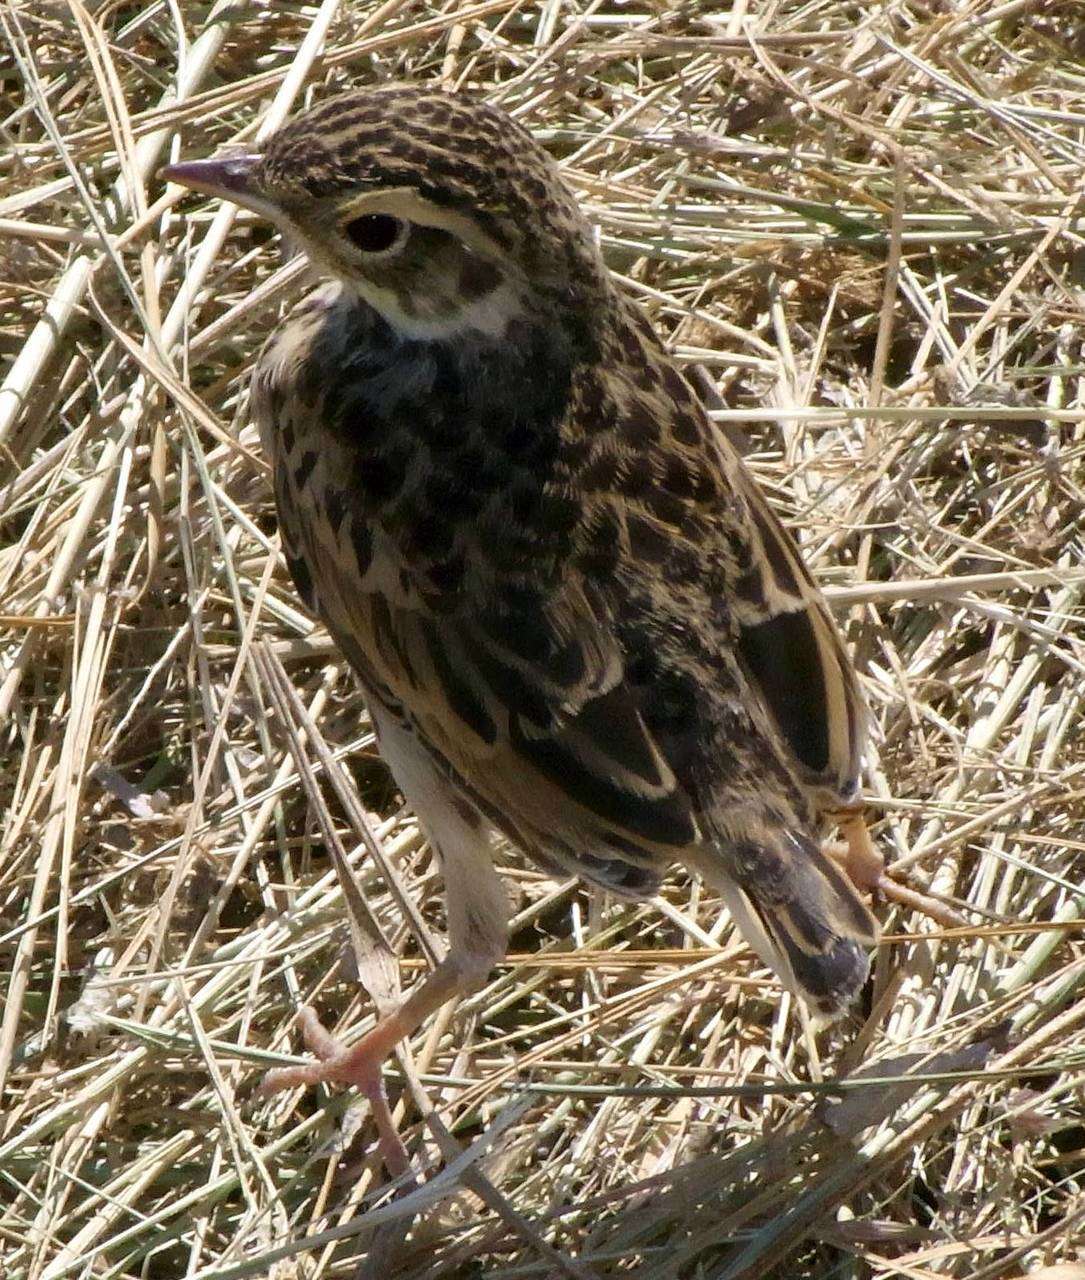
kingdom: Animalia
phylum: Chordata
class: Aves
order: Passeriformes
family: Motacillidae
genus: Anthus
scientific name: Anthus australis
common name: Australian pipit
